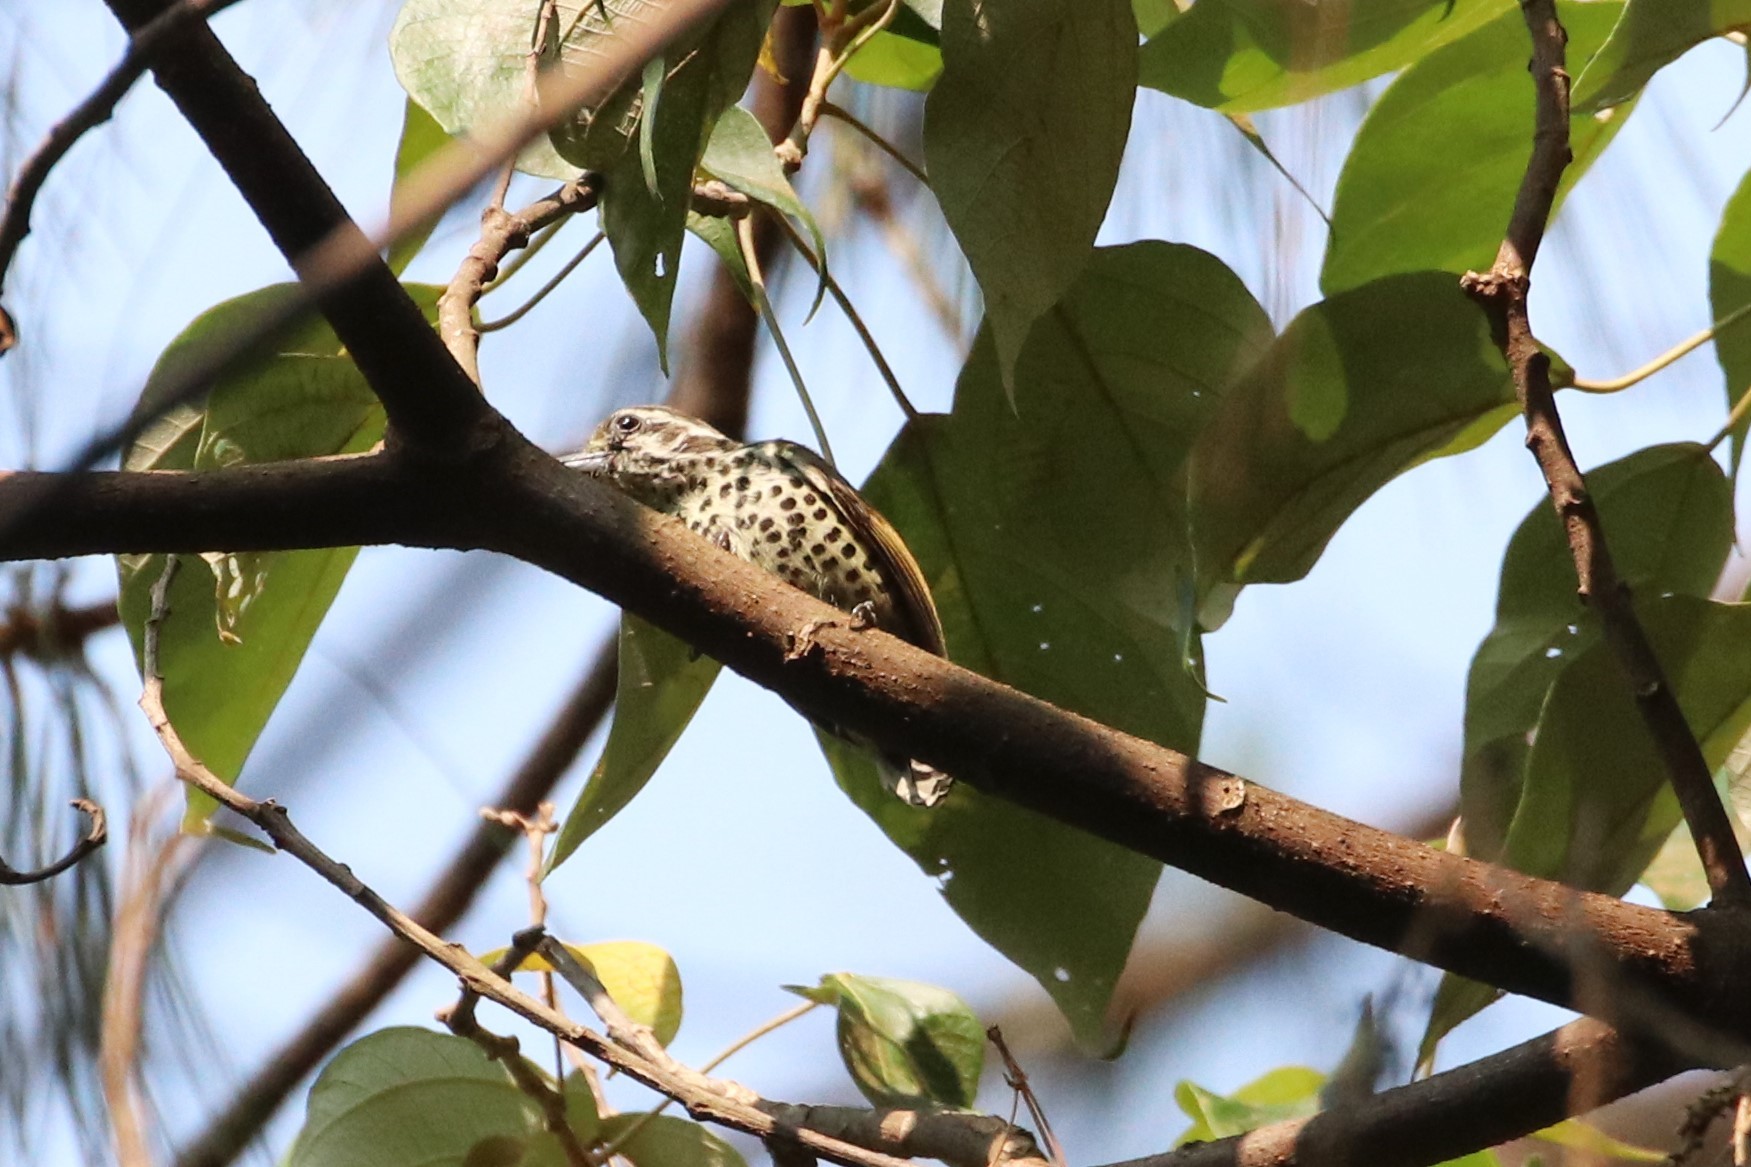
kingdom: Animalia
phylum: Chordata
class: Aves
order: Piciformes
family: Picidae
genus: Picumnus
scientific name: Picumnus innominatus
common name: Speckled piculet
